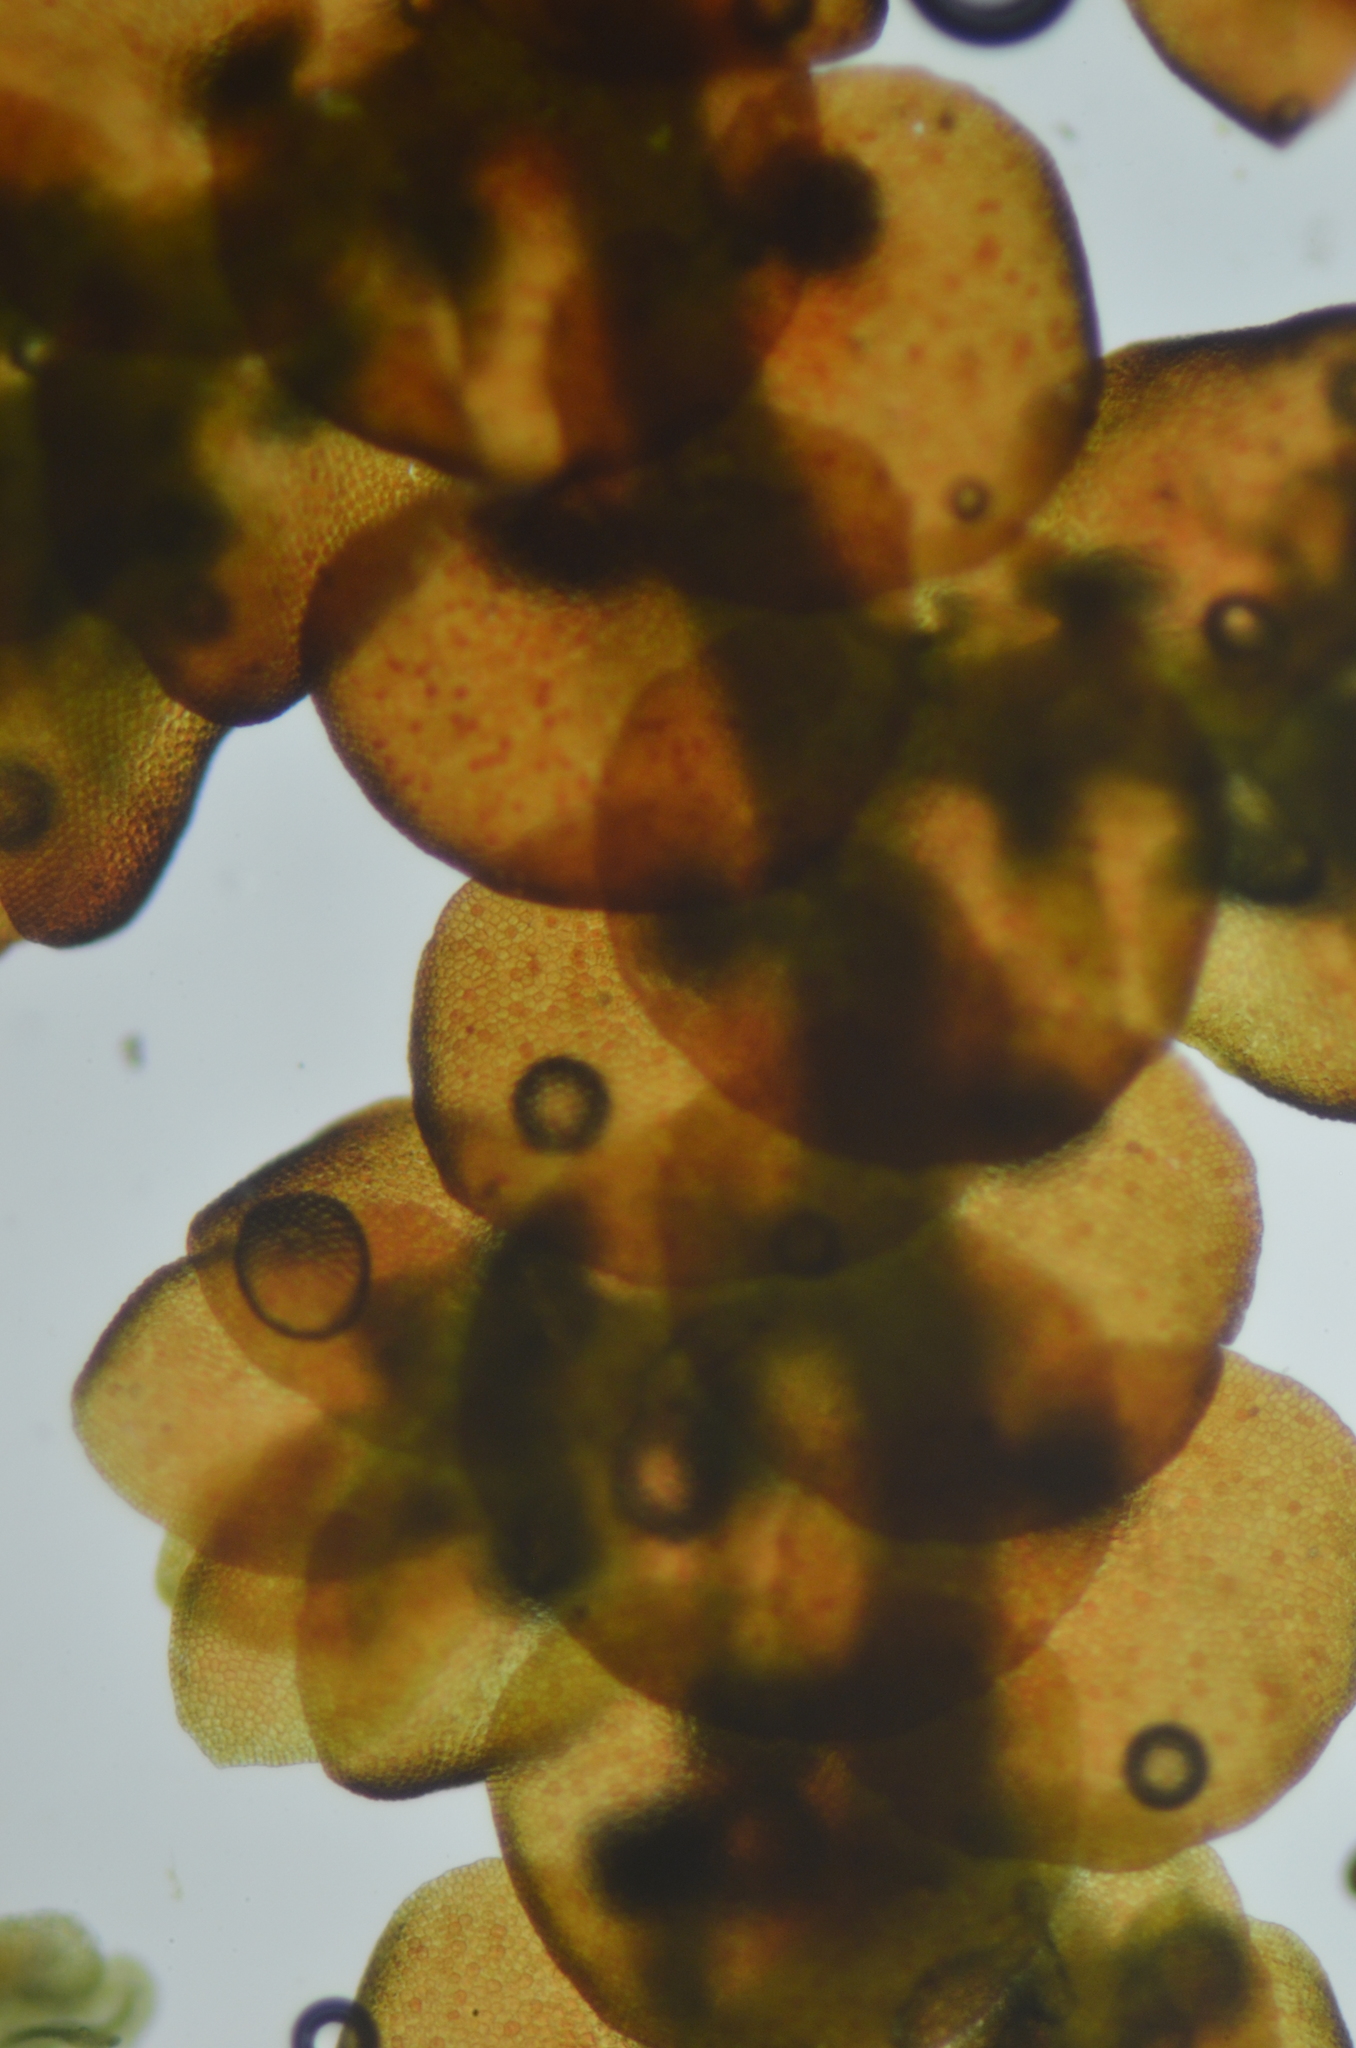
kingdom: Plantae
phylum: Marchantiophyta
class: Jungermanniopsida
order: Porellales
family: Frullaniaceae
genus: Frullania
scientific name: Frullania californica
